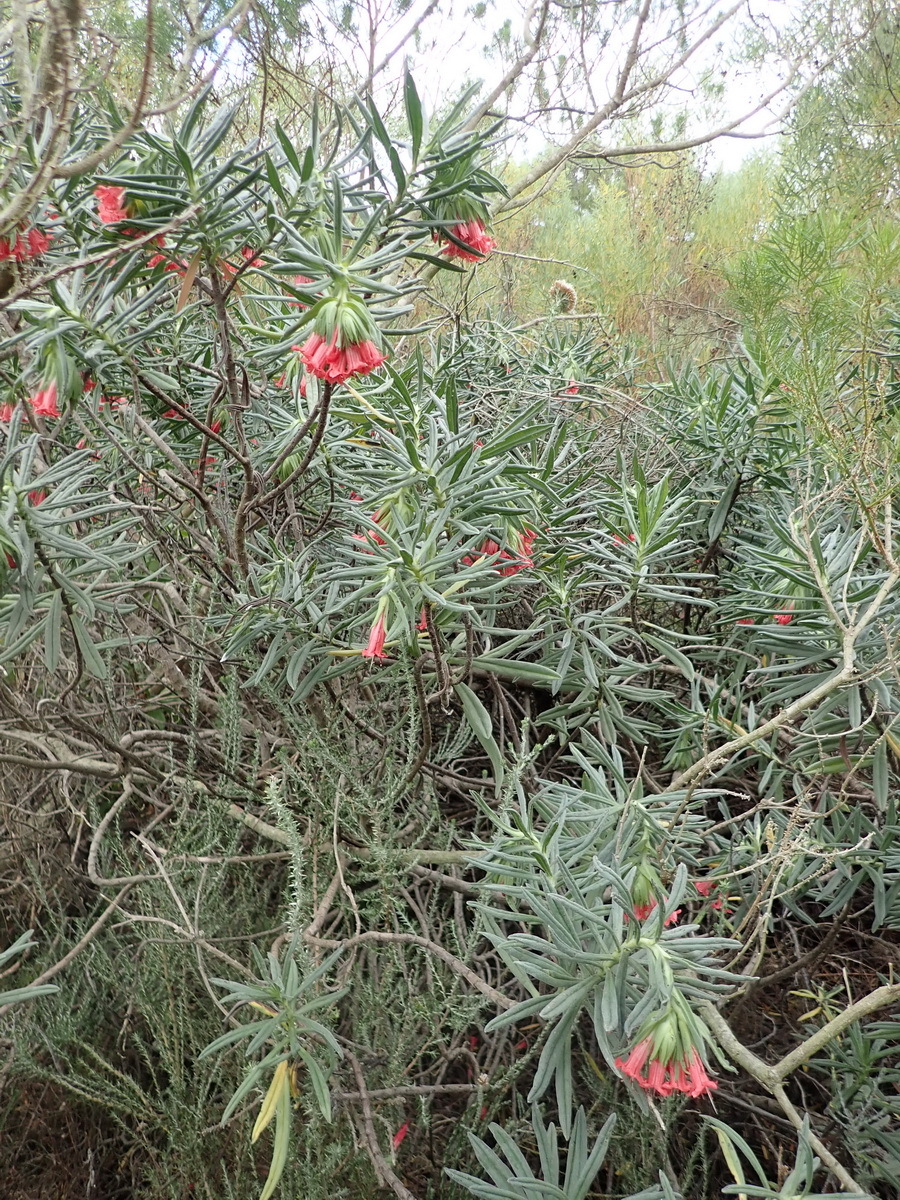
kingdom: Plantae
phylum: Tracheophyta
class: Magnoliopsida
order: Boraginales
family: Boraginaceae
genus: Lobostemon
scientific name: Lobostemon belliformis
